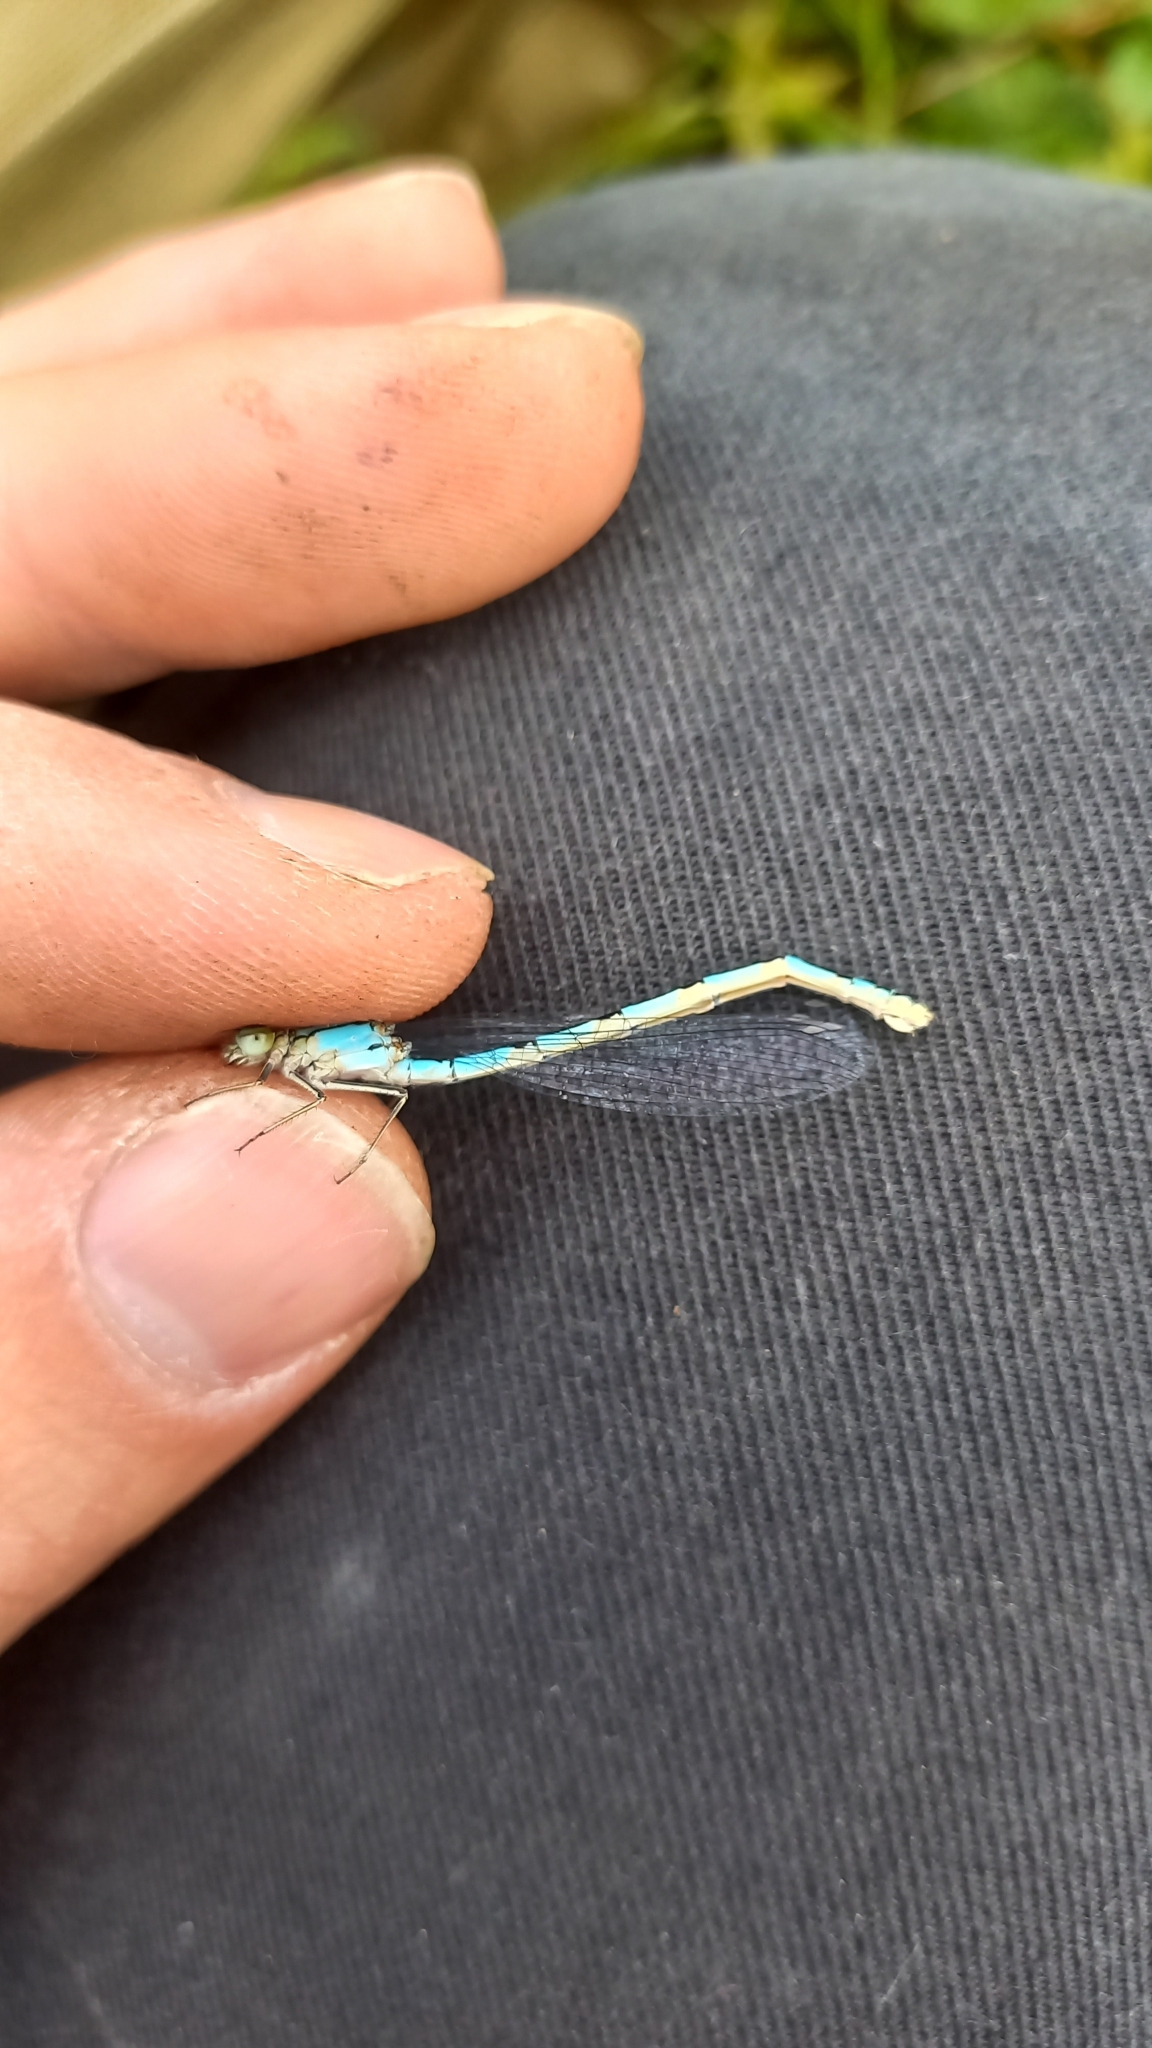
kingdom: Animalia
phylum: Arthropoda
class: Insecta
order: Odonata
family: Coenagrionidae
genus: Erythromma
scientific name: Erythromma lindenii
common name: Blue-eye
